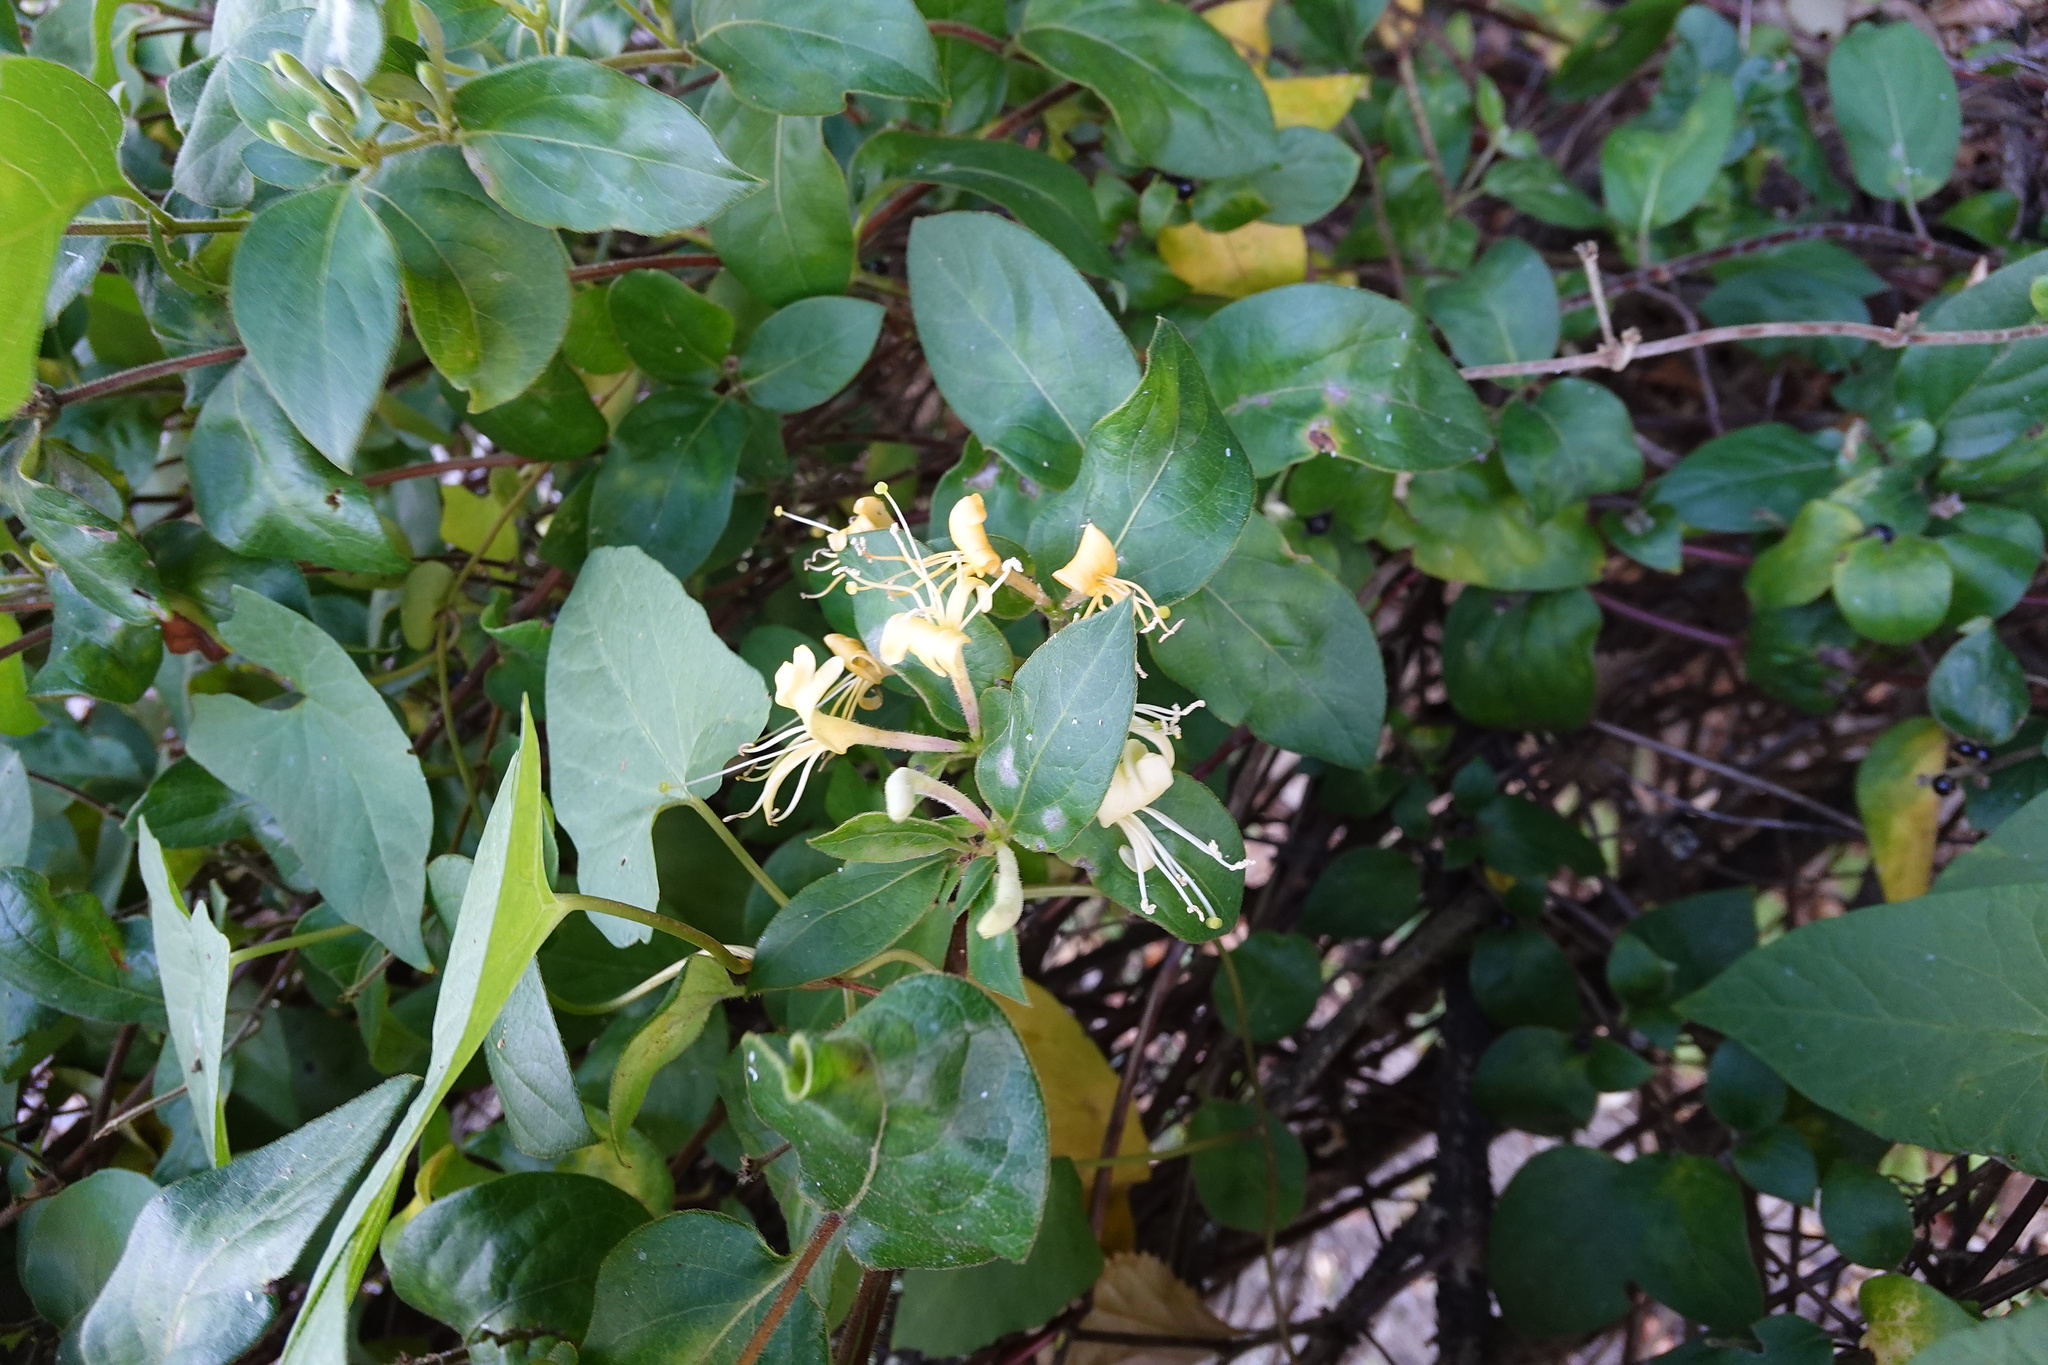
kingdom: Plantae
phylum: Tracheophyta
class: Magnoliopsida
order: Dipsacales
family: Caprifoliaceae
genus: Lonicera
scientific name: Lonicera japonica
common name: Japanese honeysuckle
